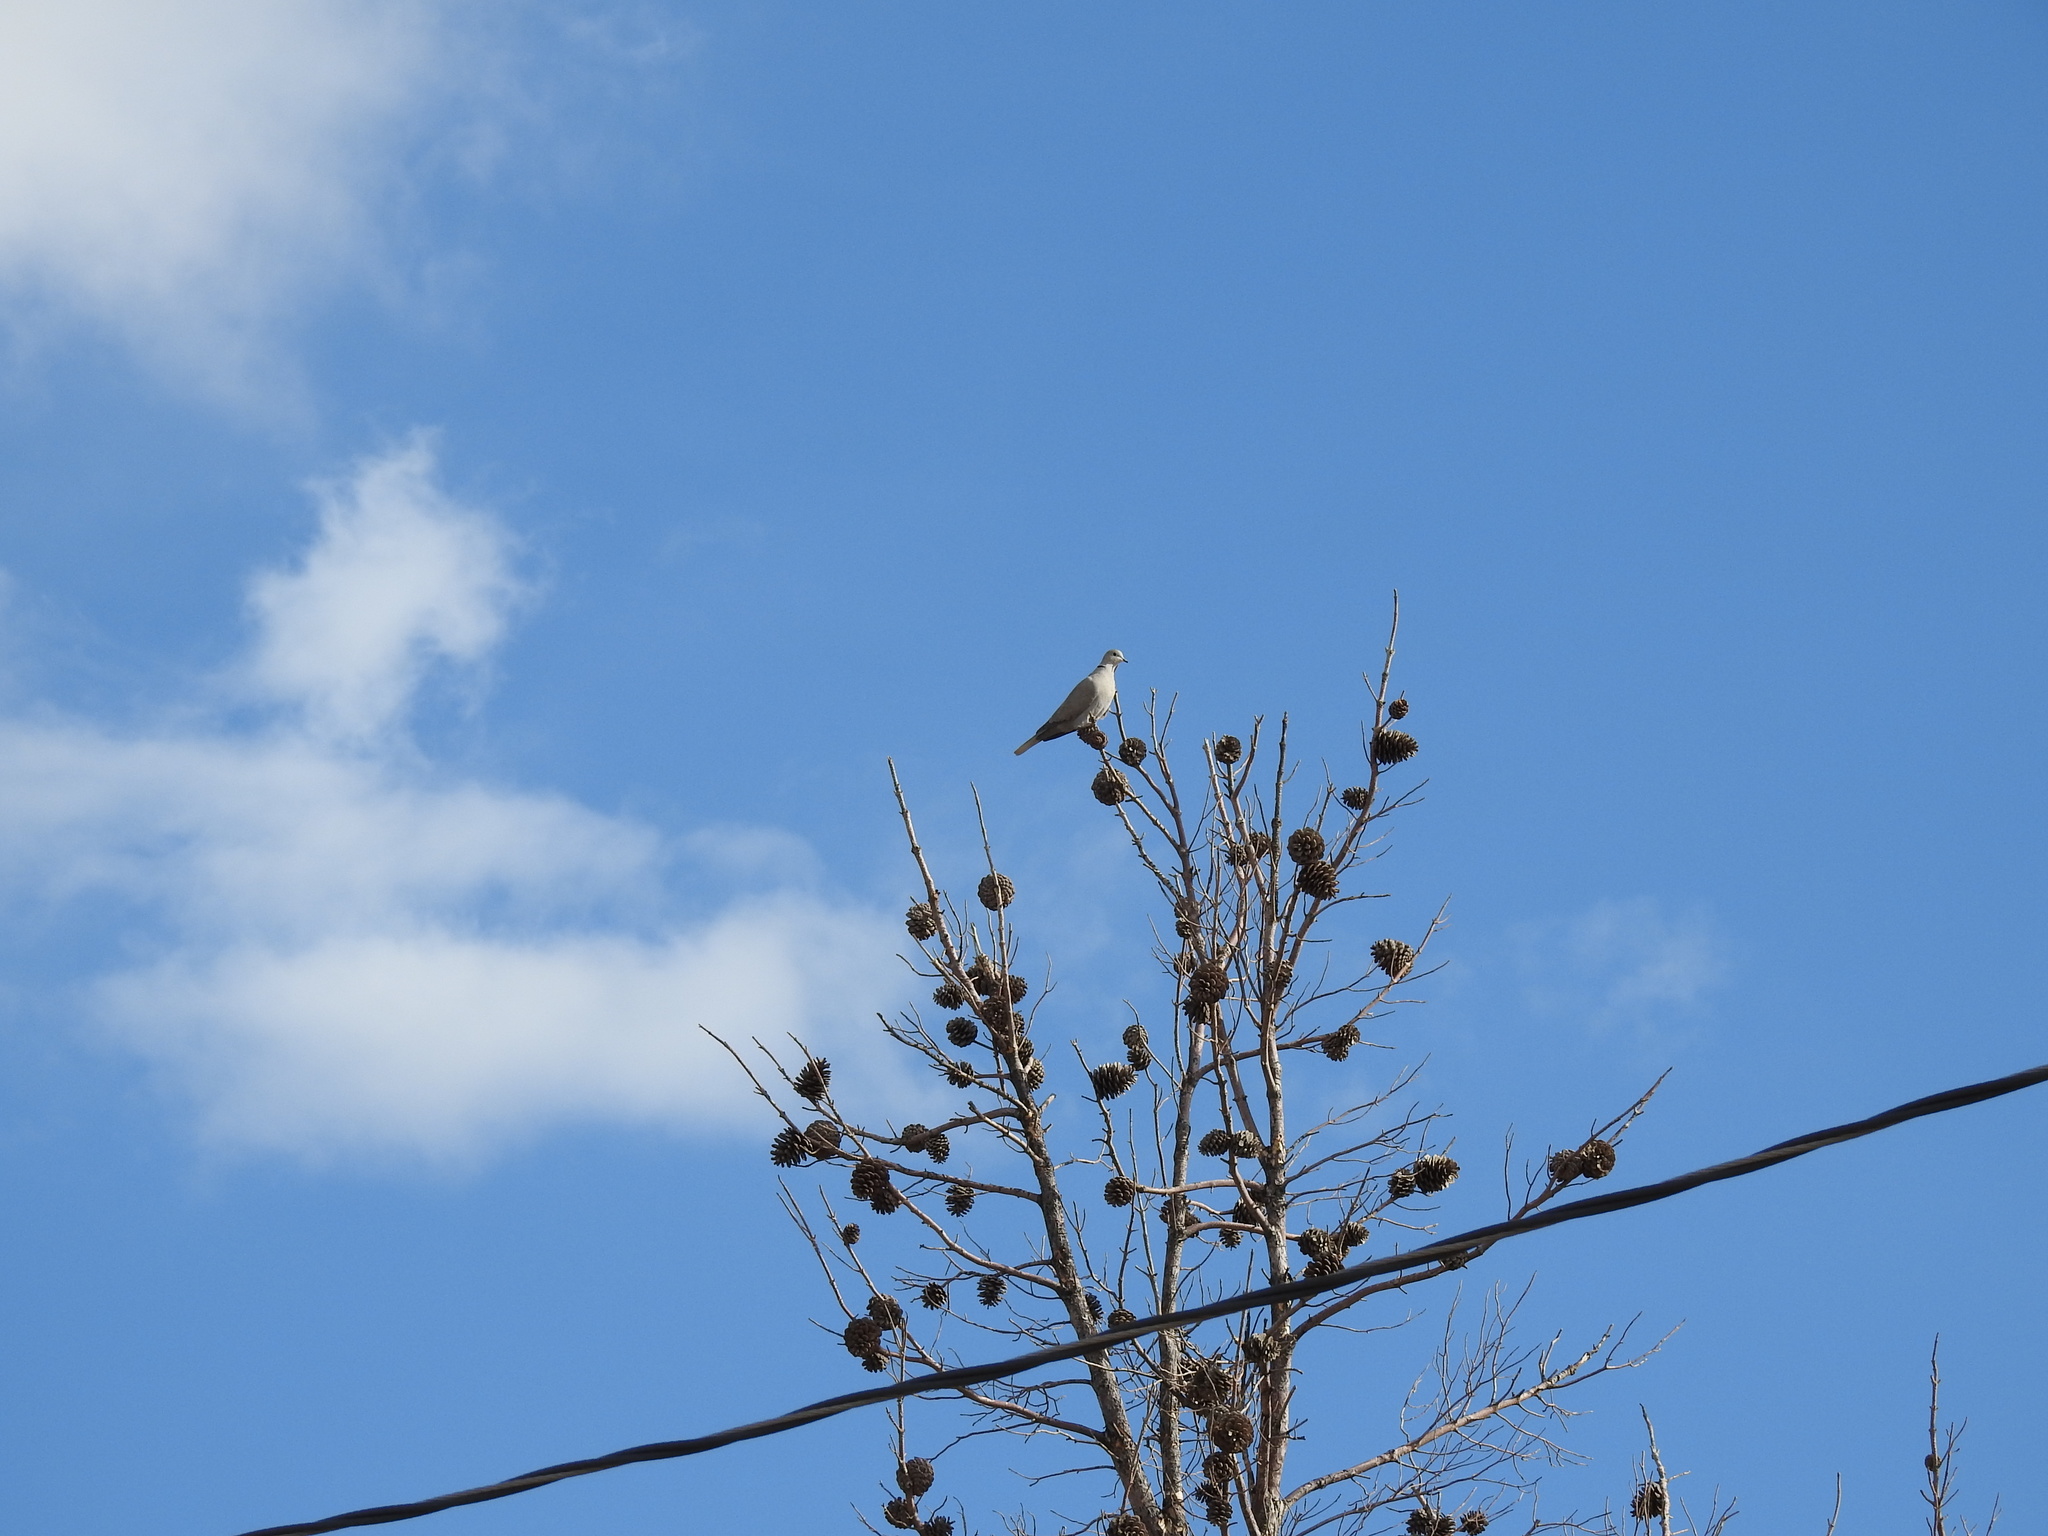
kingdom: Animalia
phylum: Chordata
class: Aves
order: Columbiformes
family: Columbidae
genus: Streptopelia
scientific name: Streptopelia decaocto
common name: Eurasian collared dove
